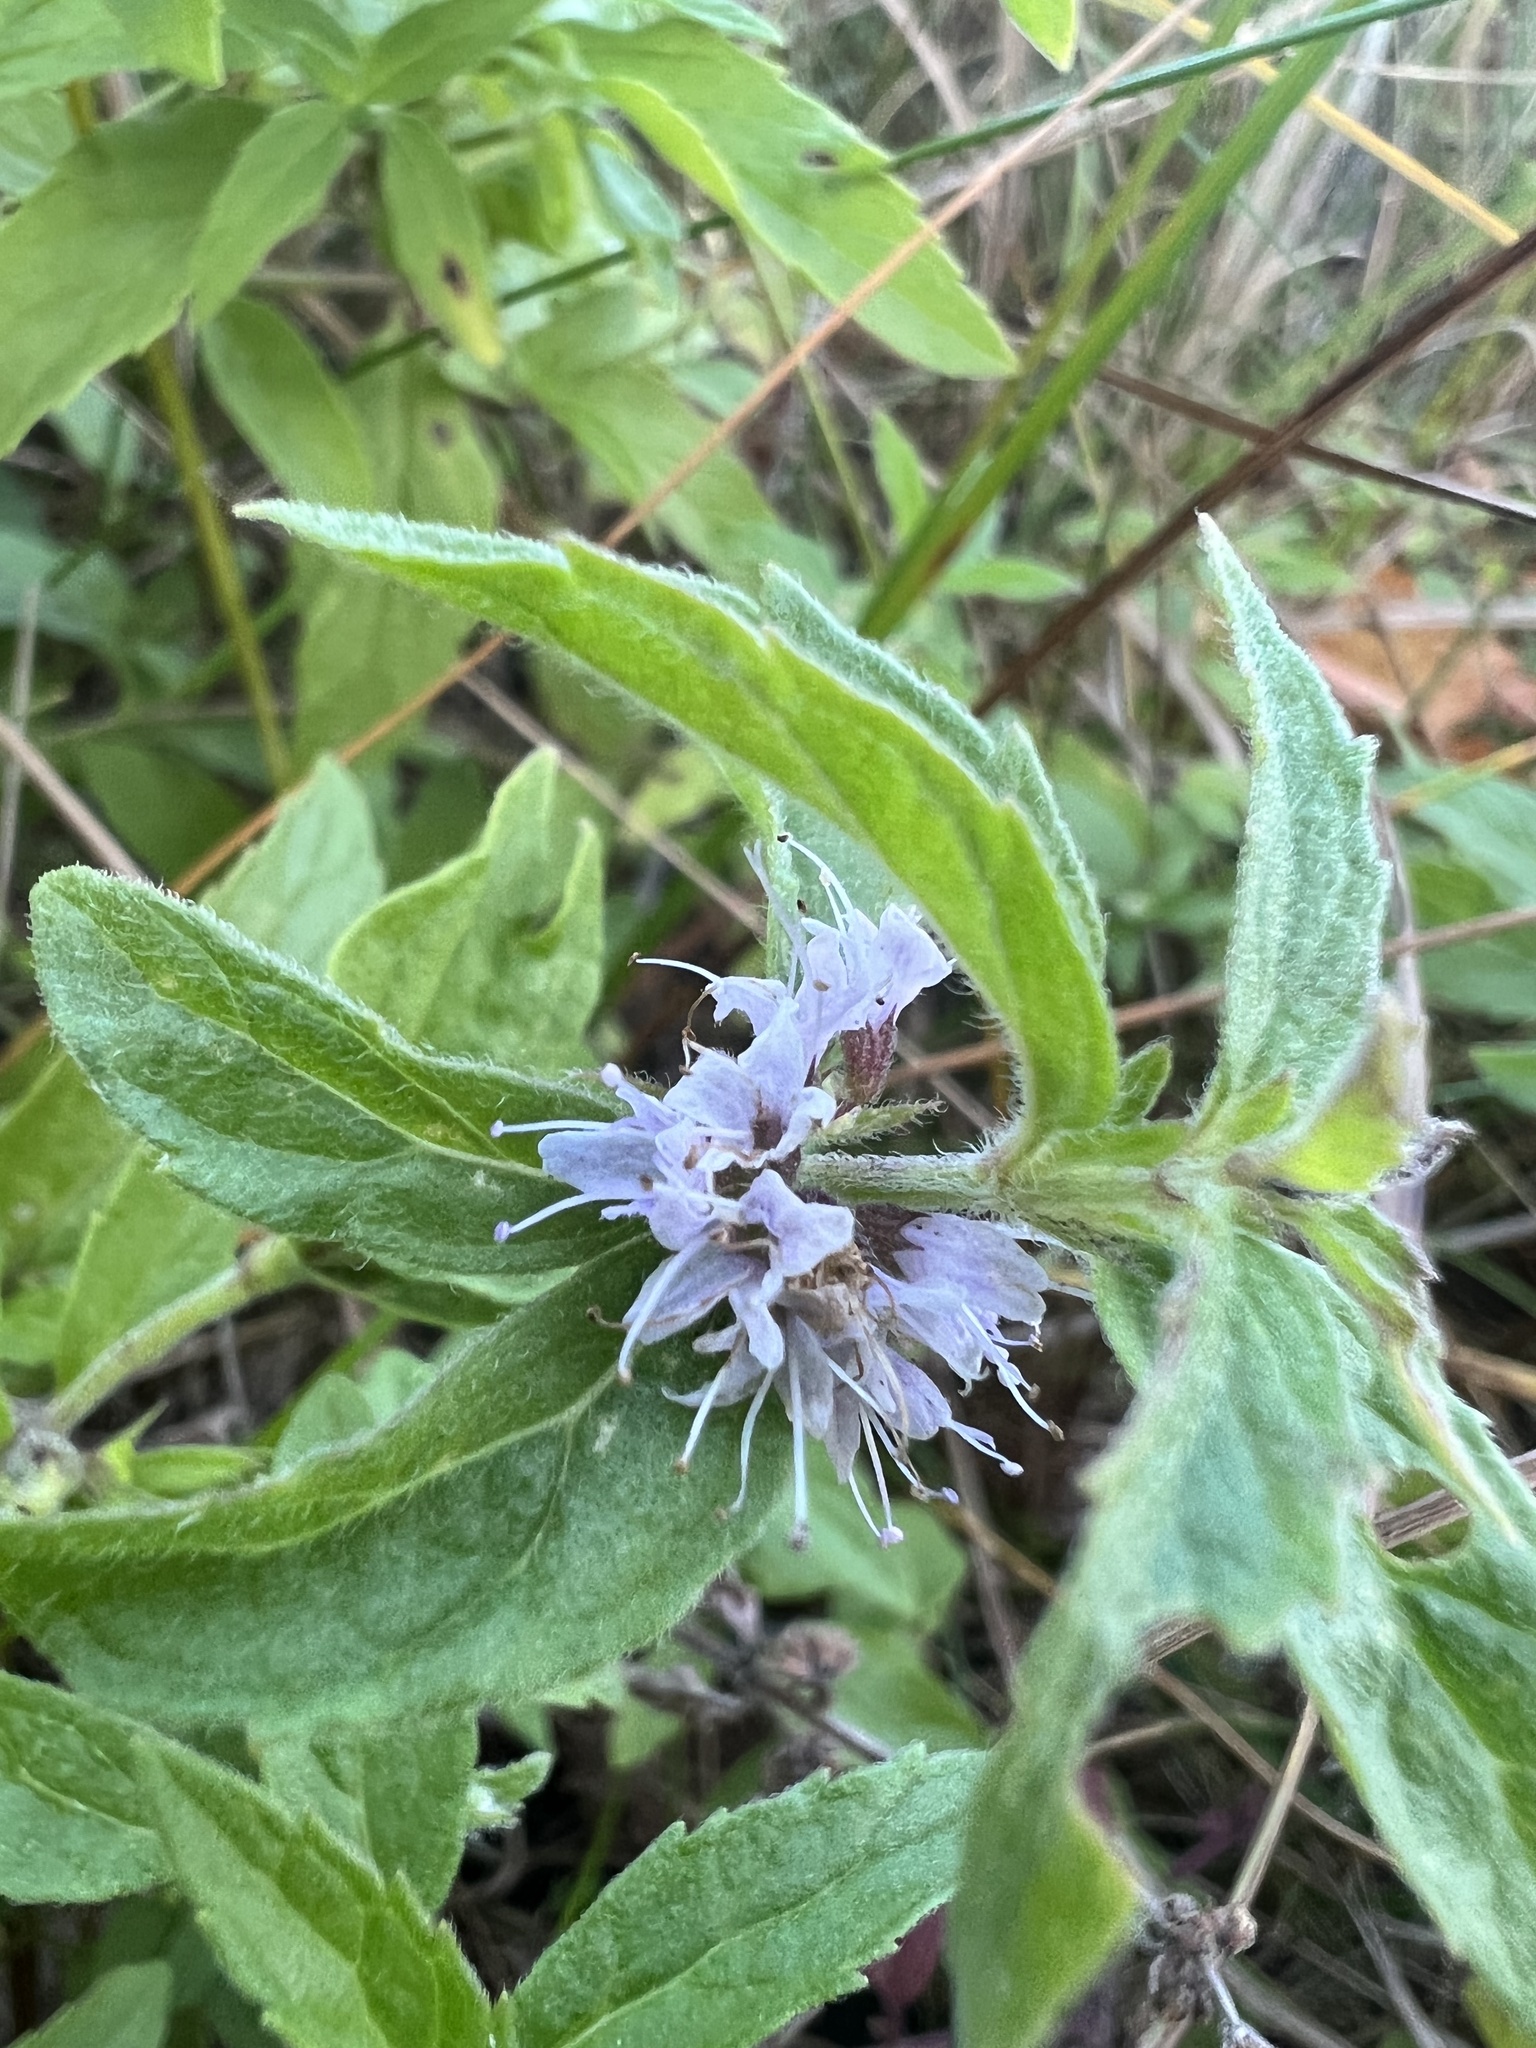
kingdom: Plantae
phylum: Tracheophyta
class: Magnoliopsida
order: Lamiales
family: Lamiaceae
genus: Mentha
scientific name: Mentha canadensis
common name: American corn mint
